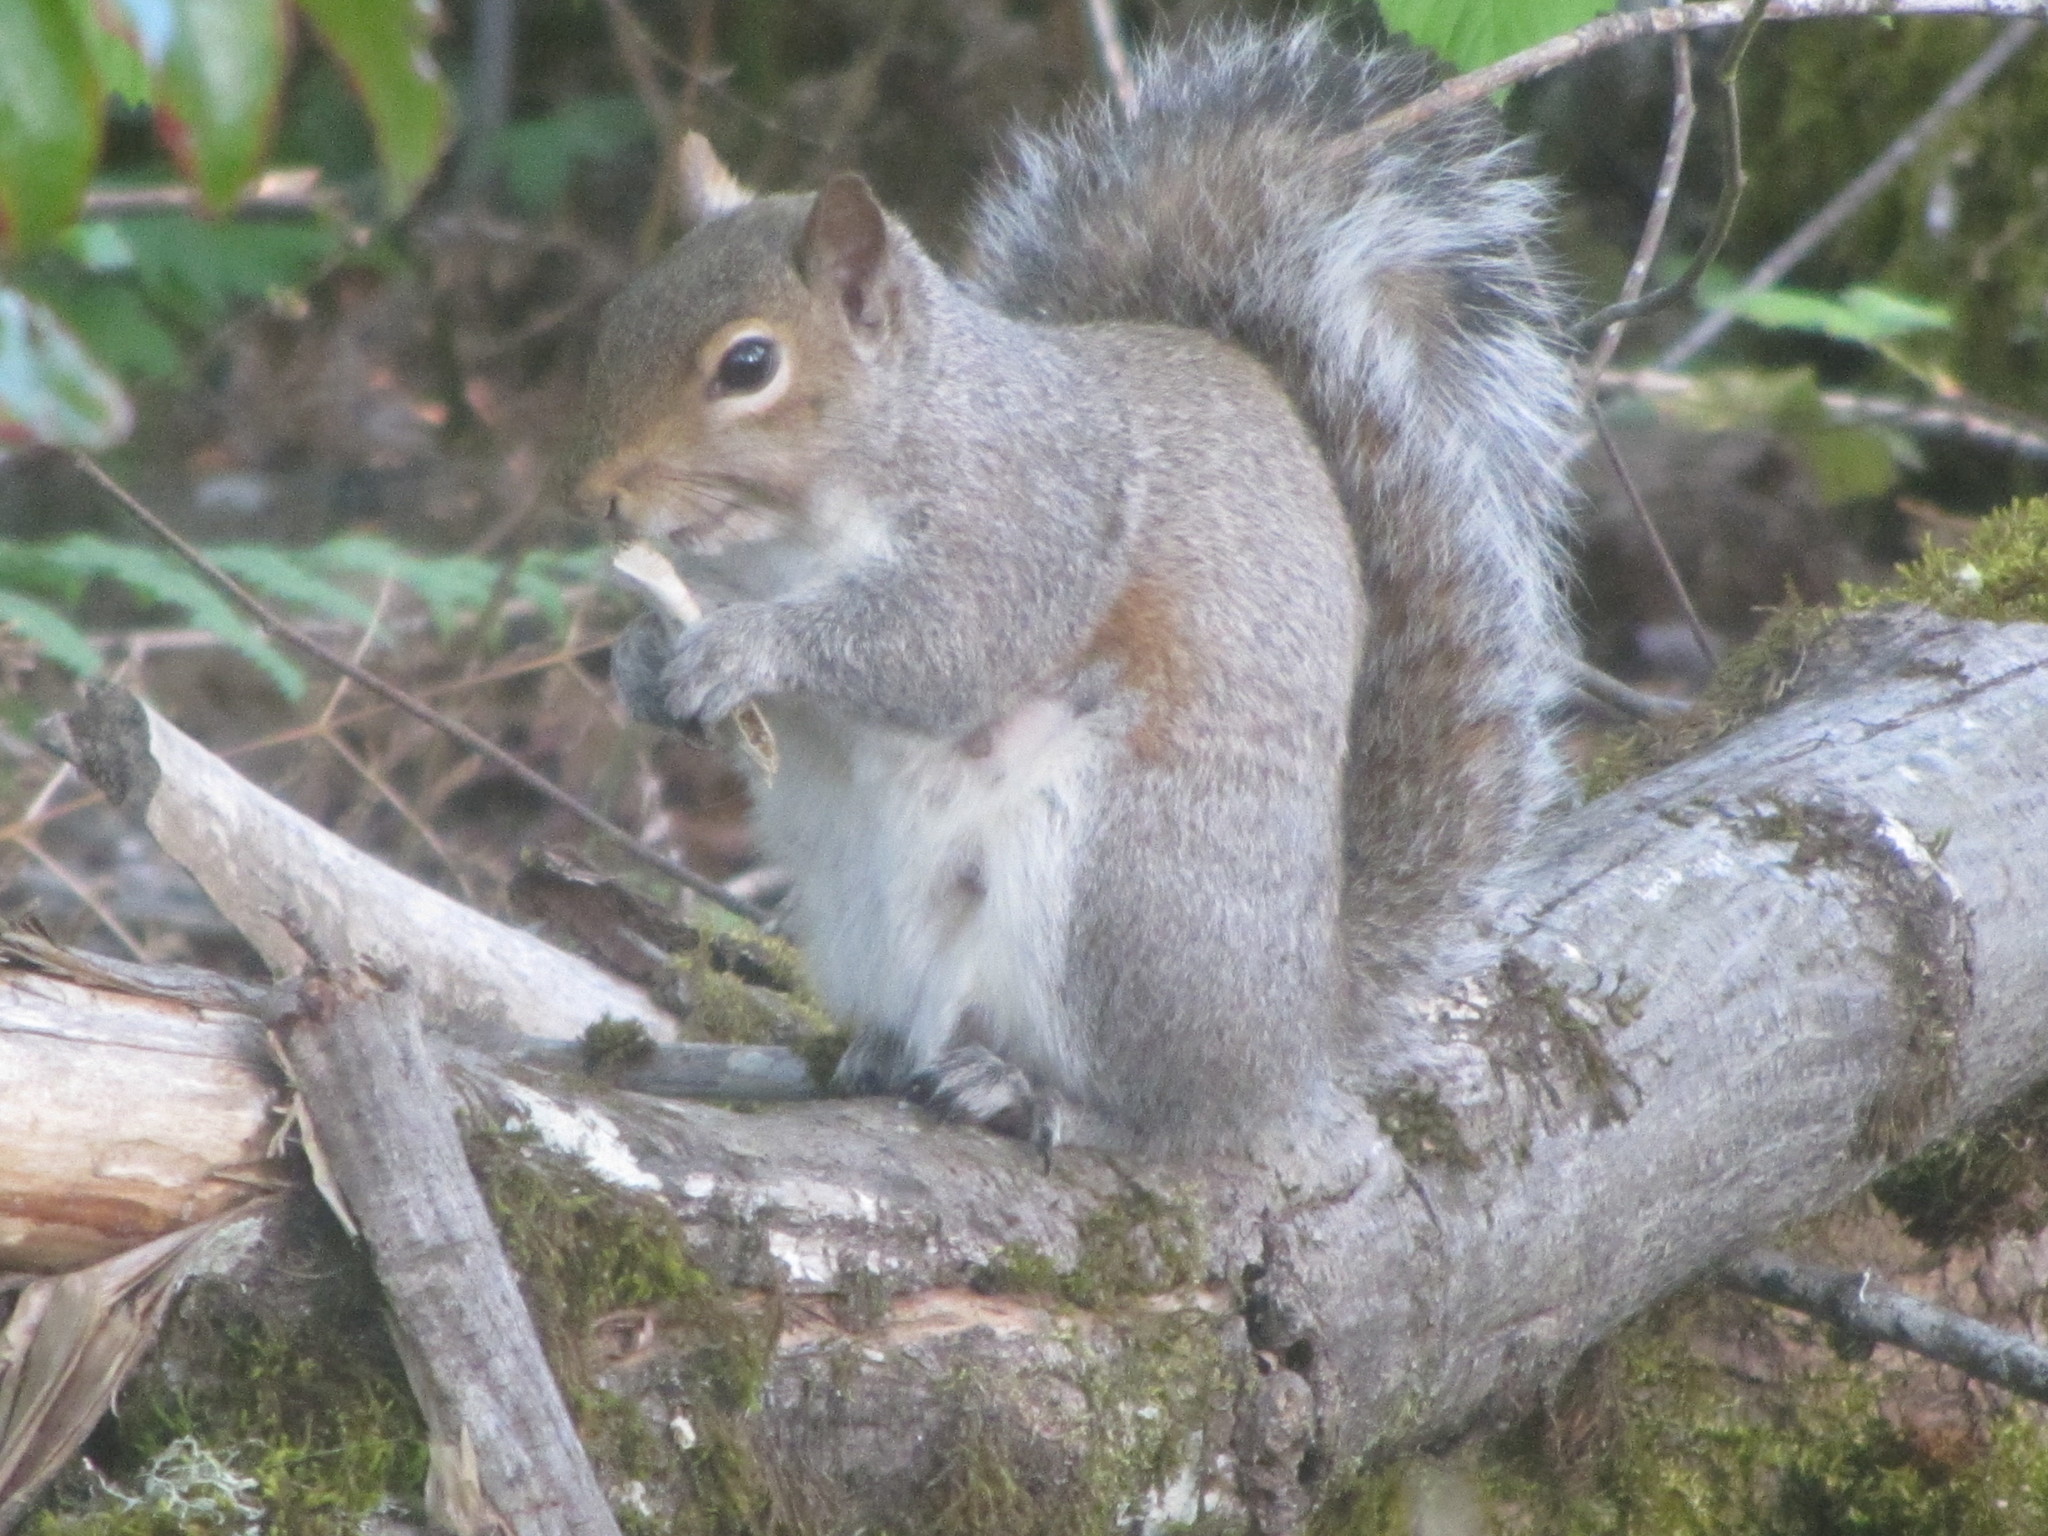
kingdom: Animalia
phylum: Chordata
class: Mammalia
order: Rodentia
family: Sciuridae
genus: Sciurus
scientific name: Sciurus carolinensis
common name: Eastern gray squirrel
